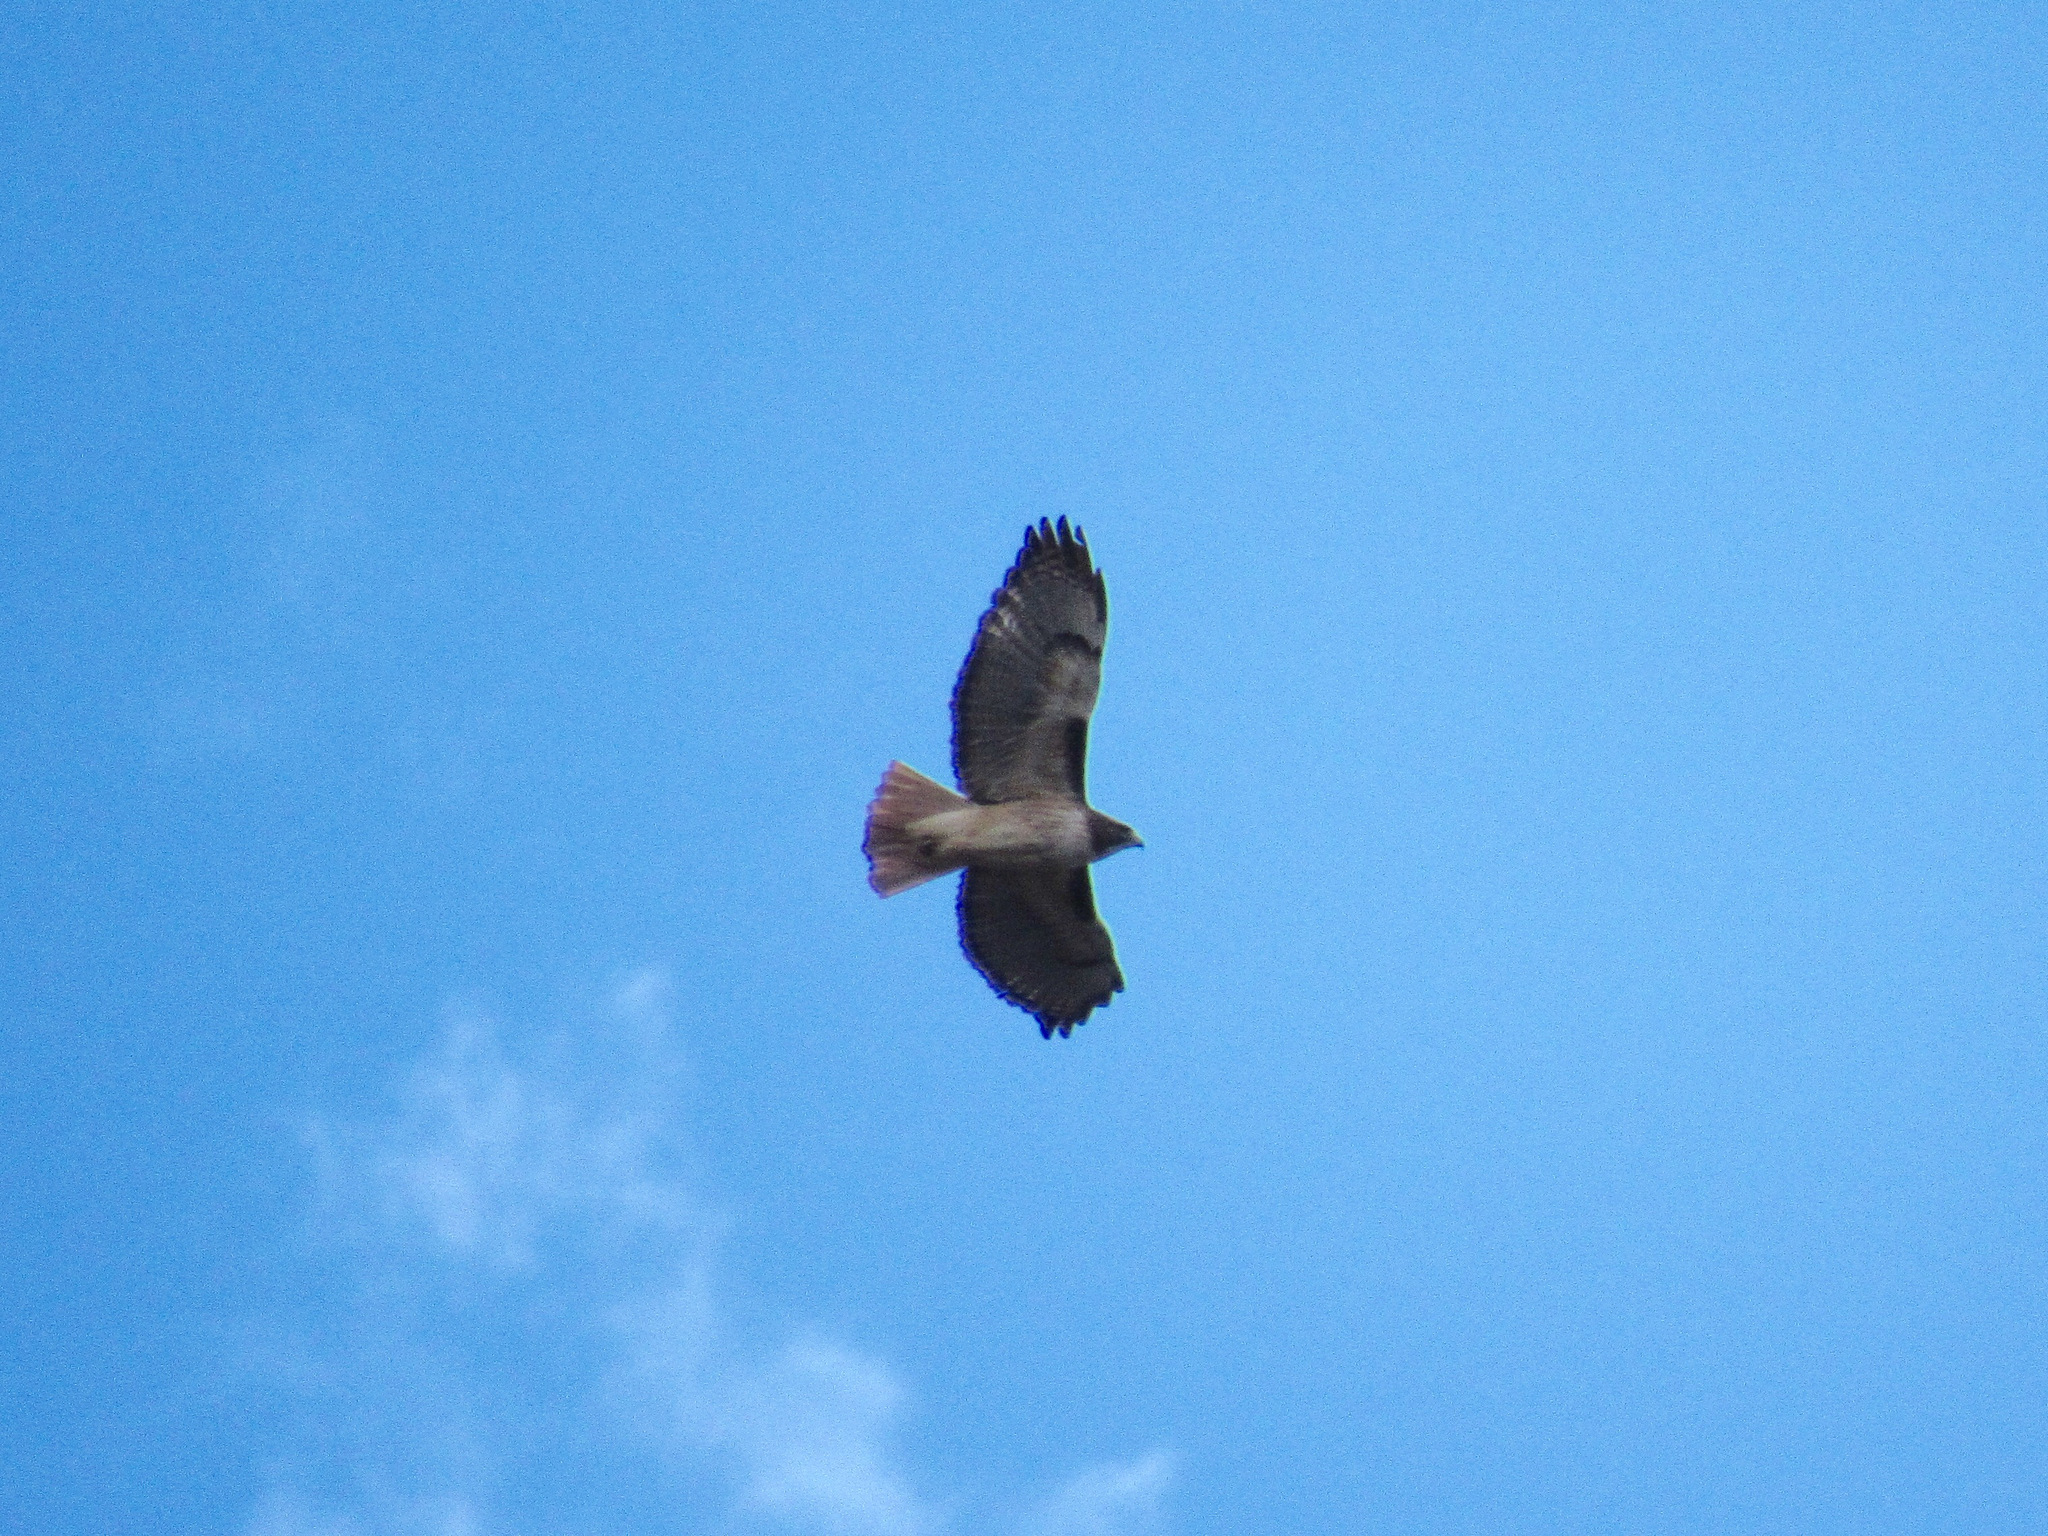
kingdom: Animalia
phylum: Chordata
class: Aves
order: Accipitriformes
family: Accipitridae
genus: Buteo
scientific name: Buteo jamaicensis
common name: Red-tailed hawk
